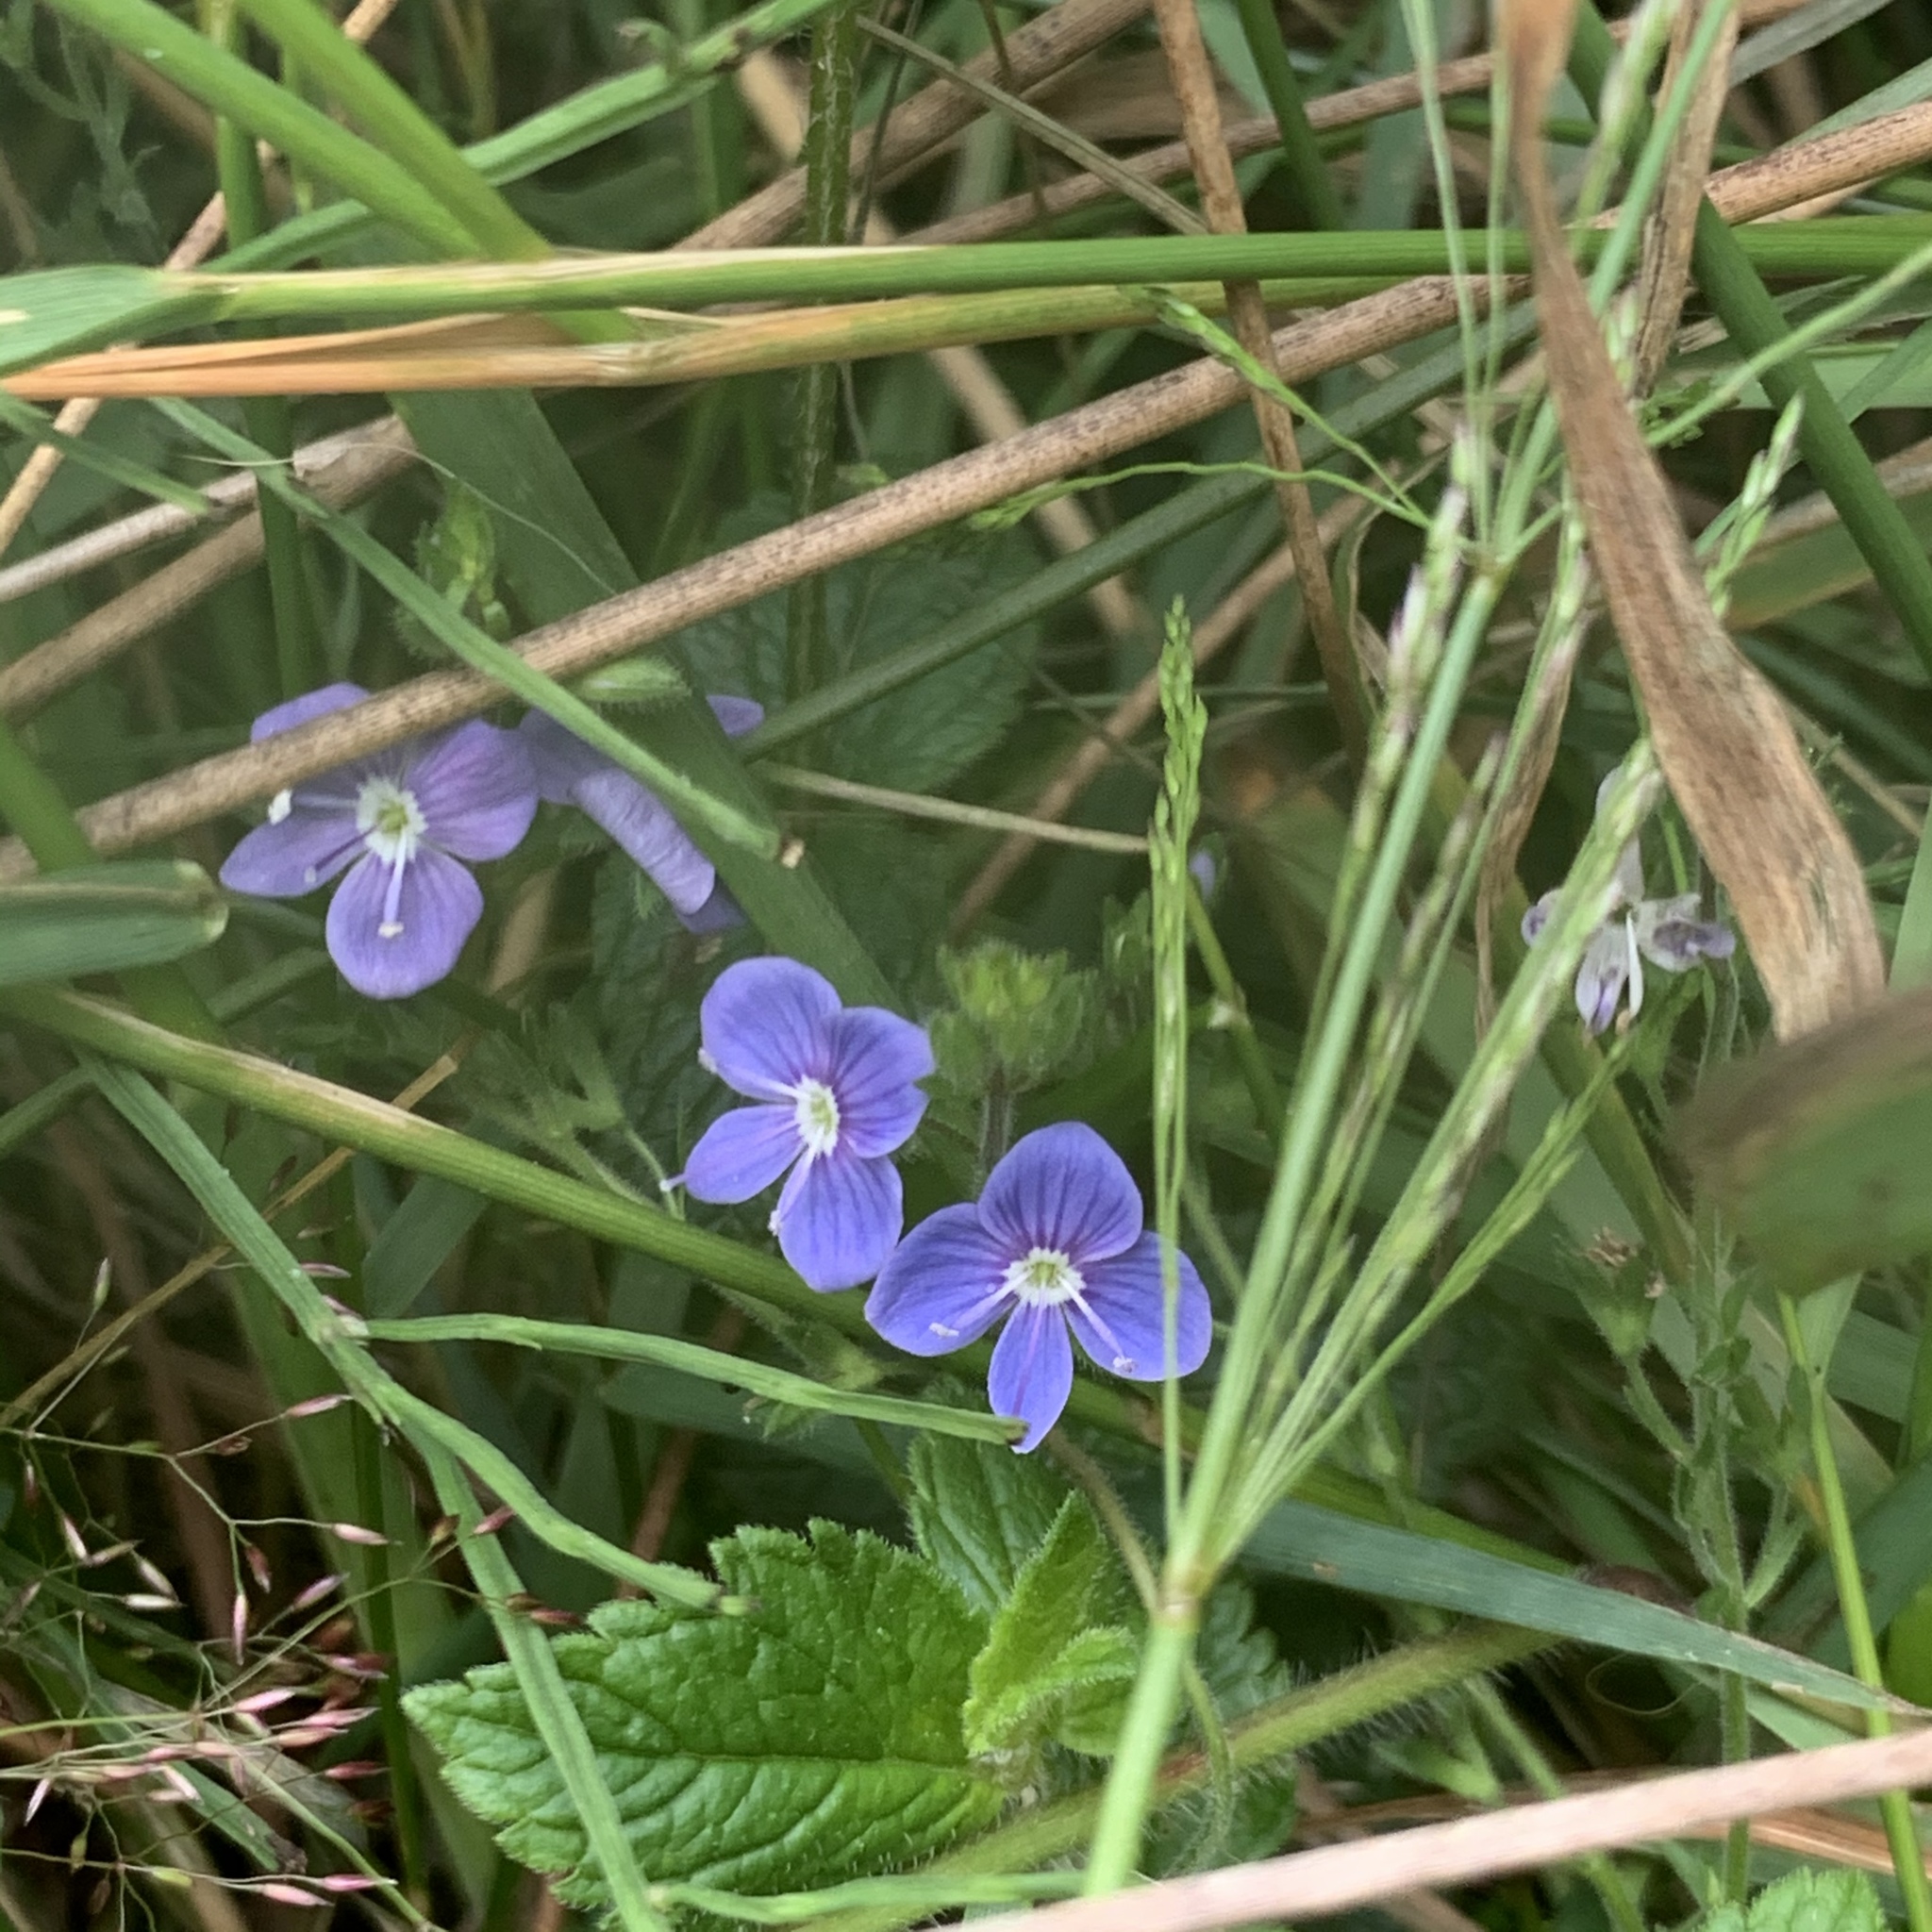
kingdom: Plantae
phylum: Tracheophyta
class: Magnoliopsida
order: Lamiales
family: Plantaginaceae
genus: Veronica
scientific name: Veronica chamaedrys
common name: Germander speedwell
